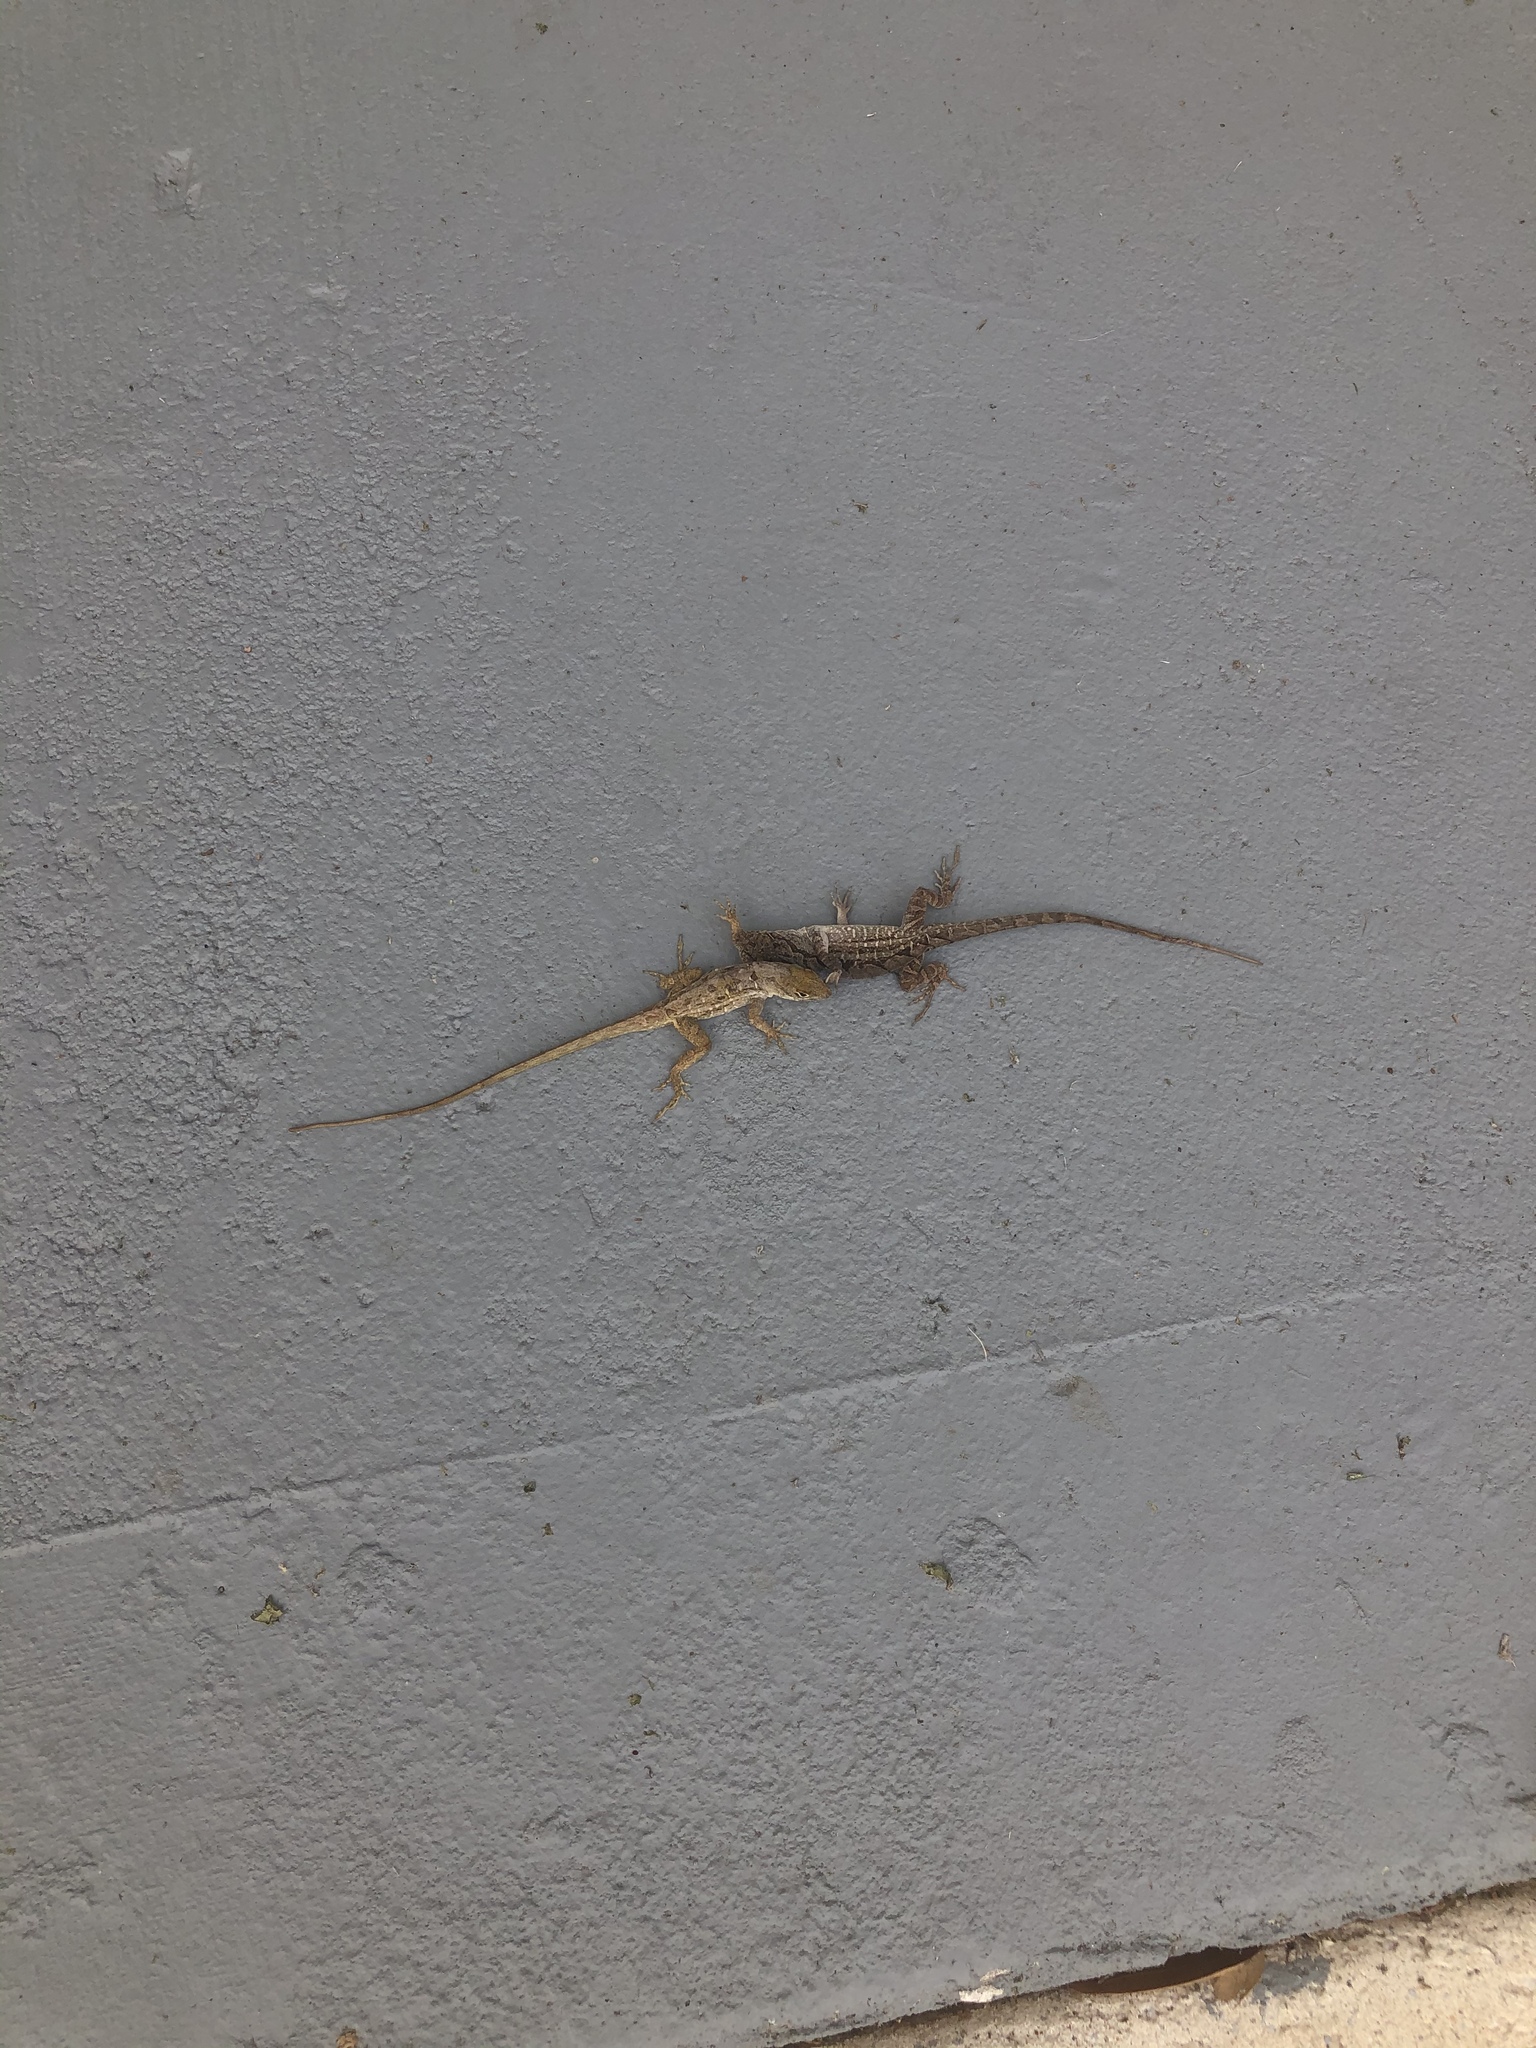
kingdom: Animalia
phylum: Chordata
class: Squamata
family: Dactyloidae
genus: Anolis
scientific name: Anolis sagrei
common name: Brown anole
